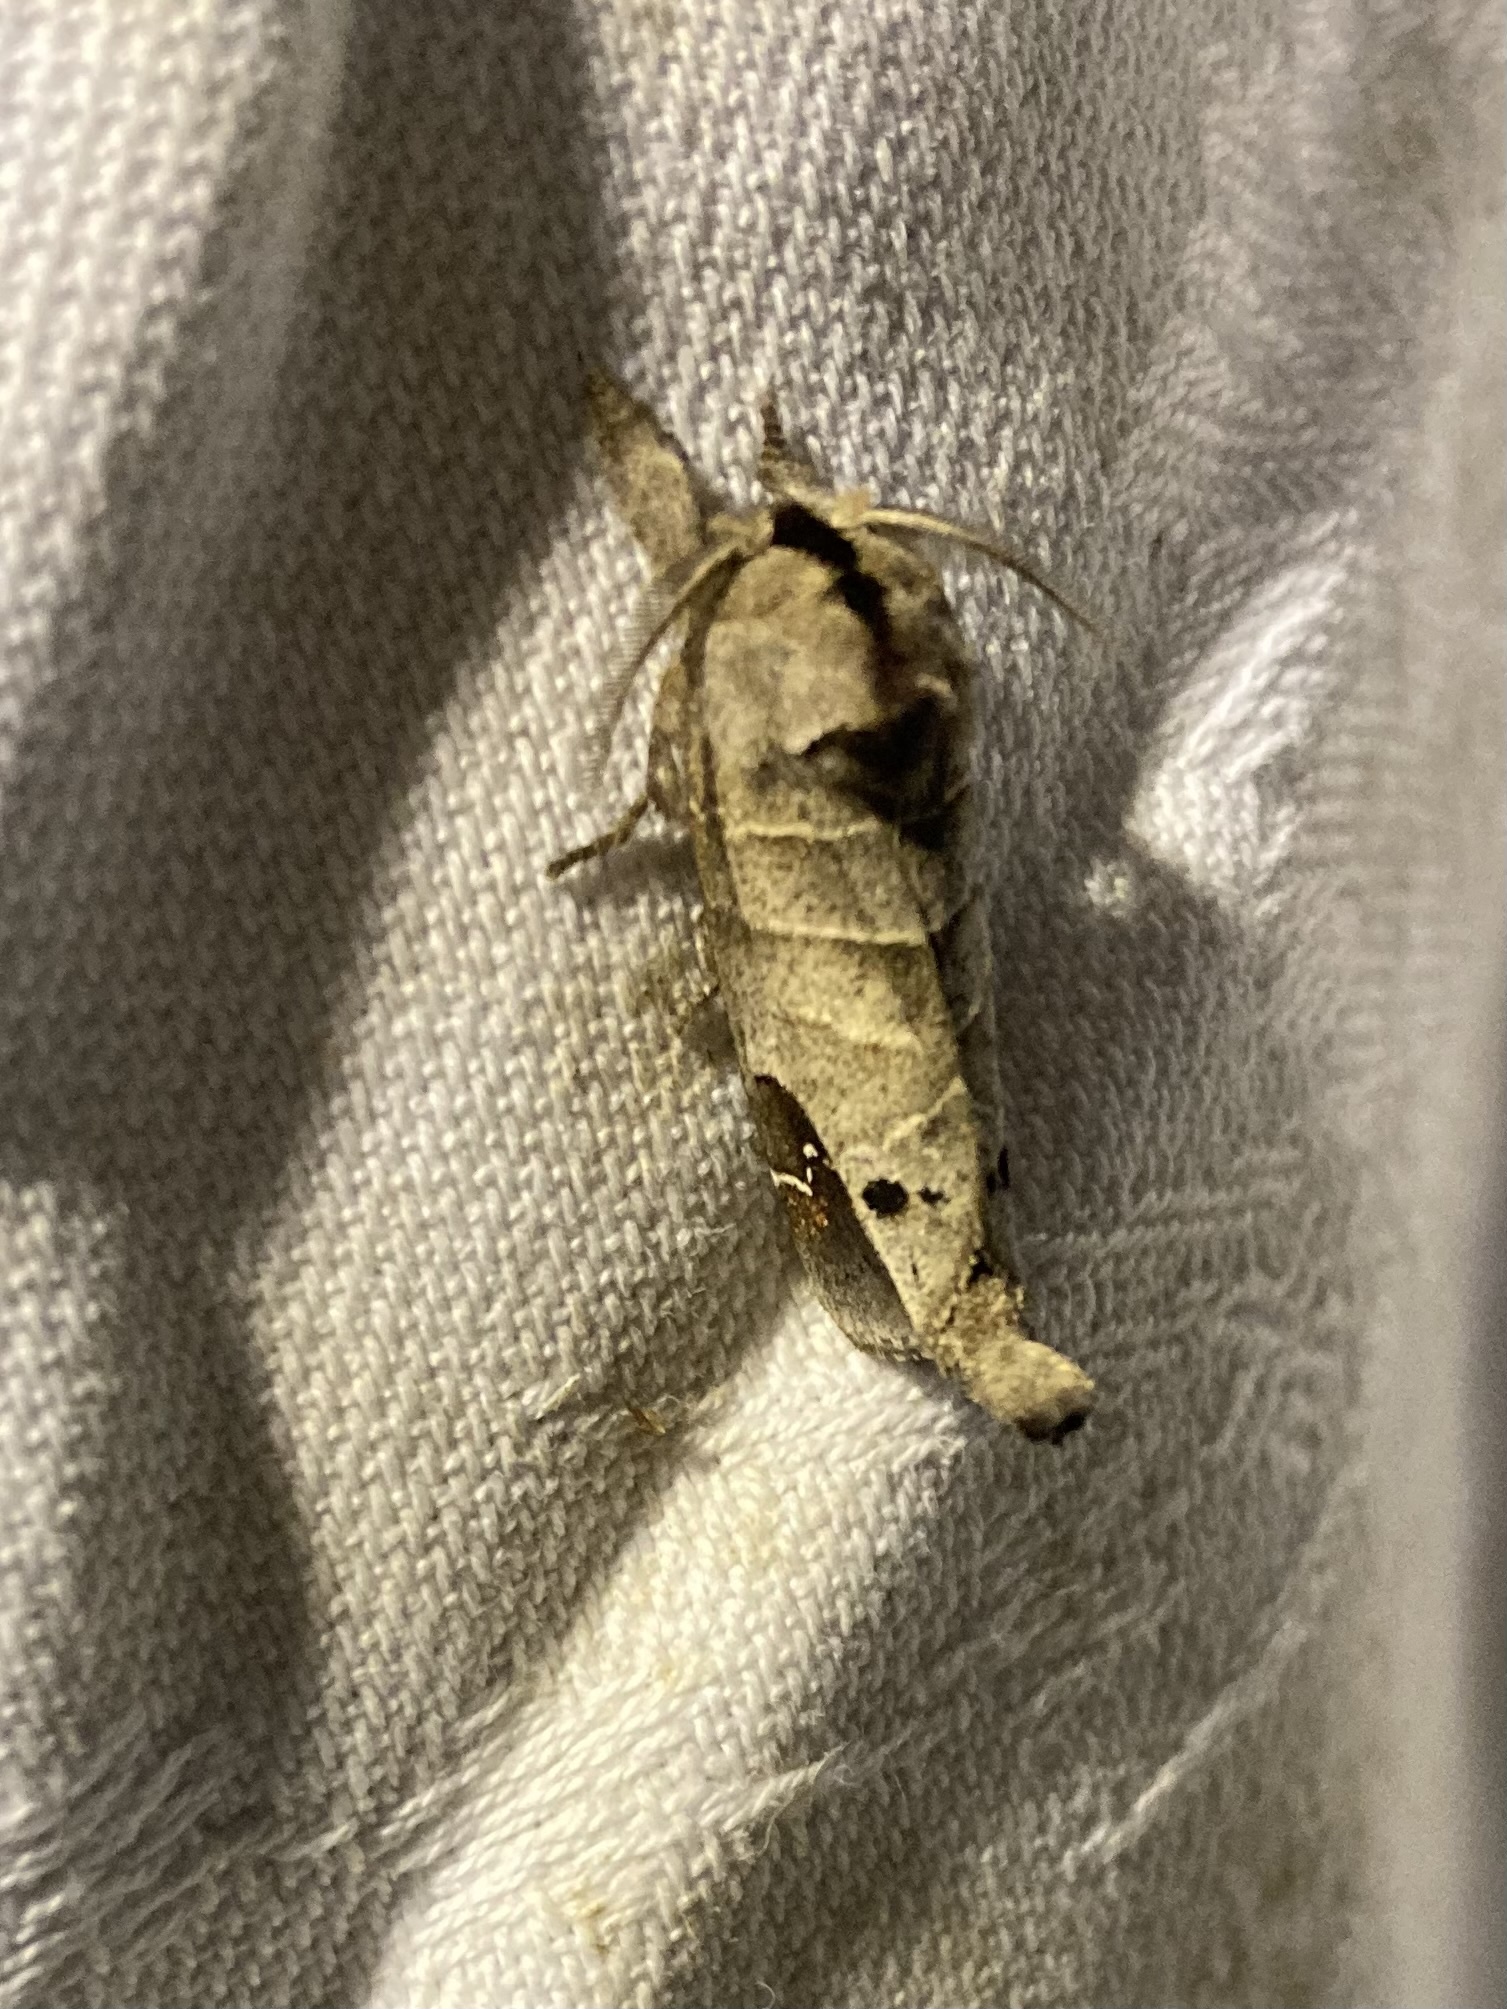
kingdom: Animalia
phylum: Arthropoda
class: Insecta
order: Lepidoptera
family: Notodontidae
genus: Clostera
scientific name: Clostera anachoreta
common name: Scarce chocolate-tip
